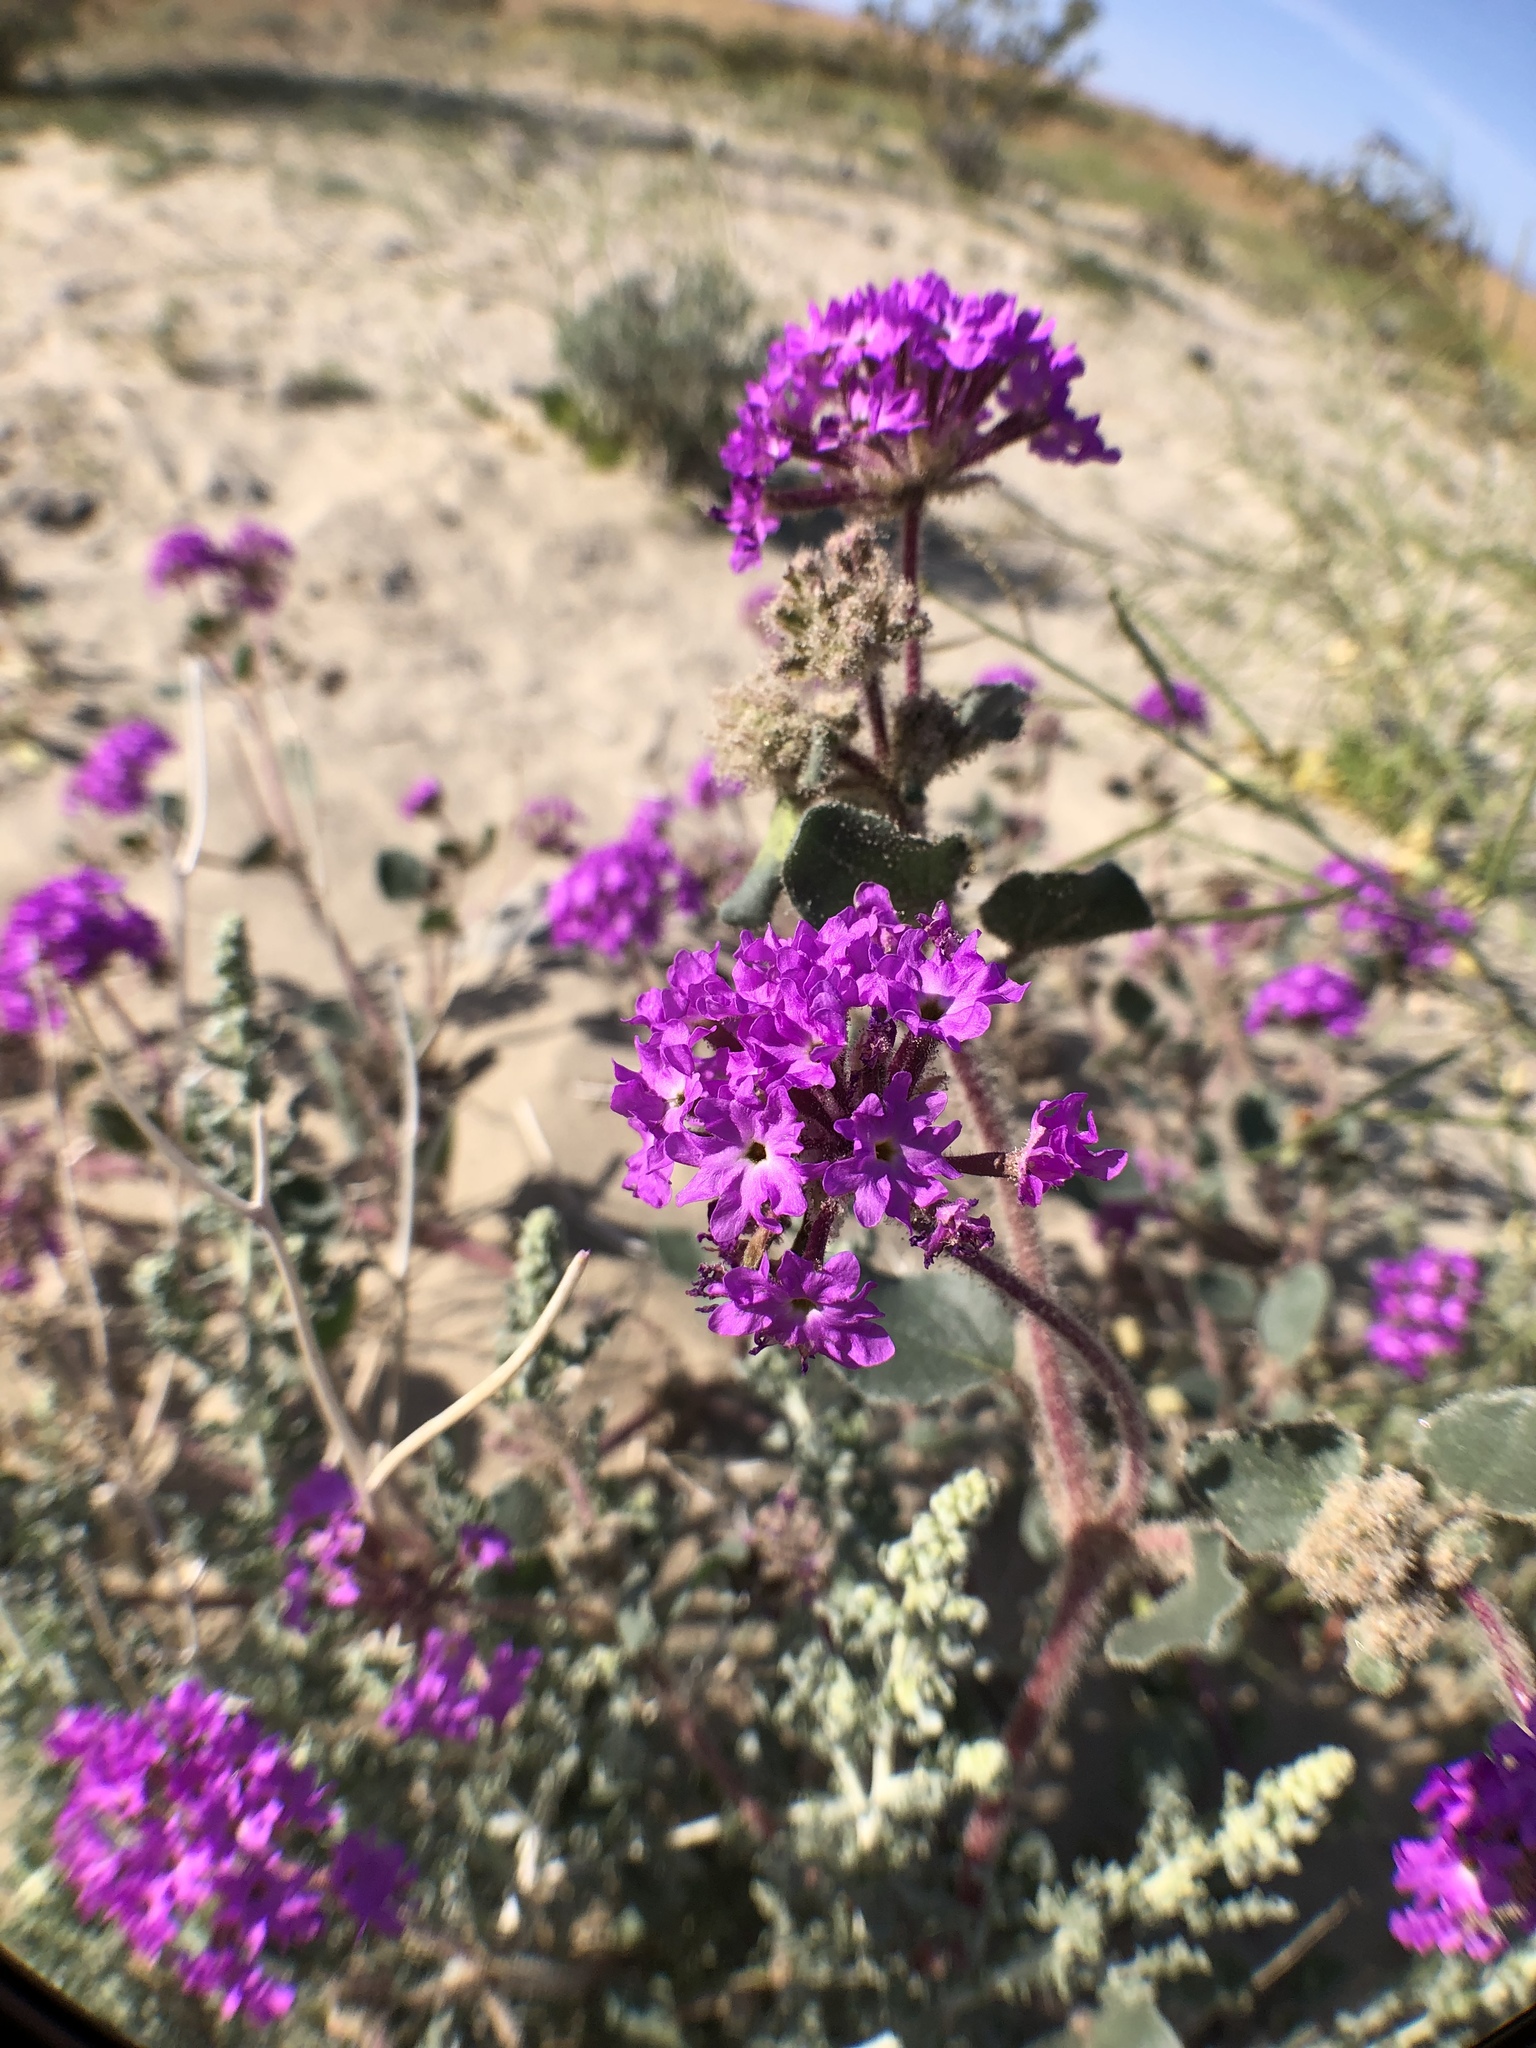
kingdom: Plantae
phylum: Tracheophyta
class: Magnoliopsida
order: Caryophyllales
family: Nyctaginaceae
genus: Abronia
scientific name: Abronia villosa
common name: Desert sand-verbena
